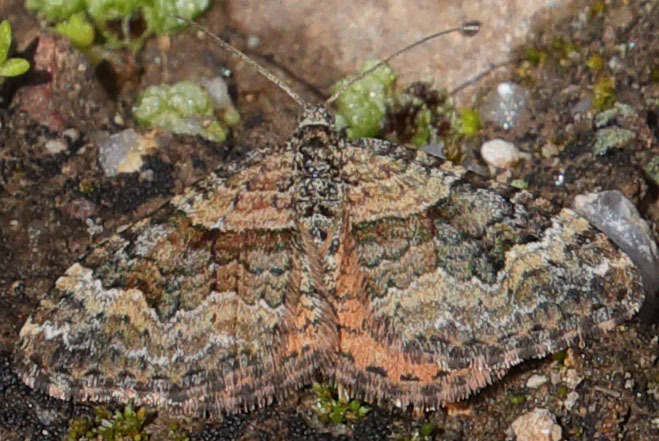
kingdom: Animalia
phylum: Arthropoda
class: Insecta
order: Lepidoptera
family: Geometridae
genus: Epirrhoe
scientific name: Epirrhoe plebeculata
